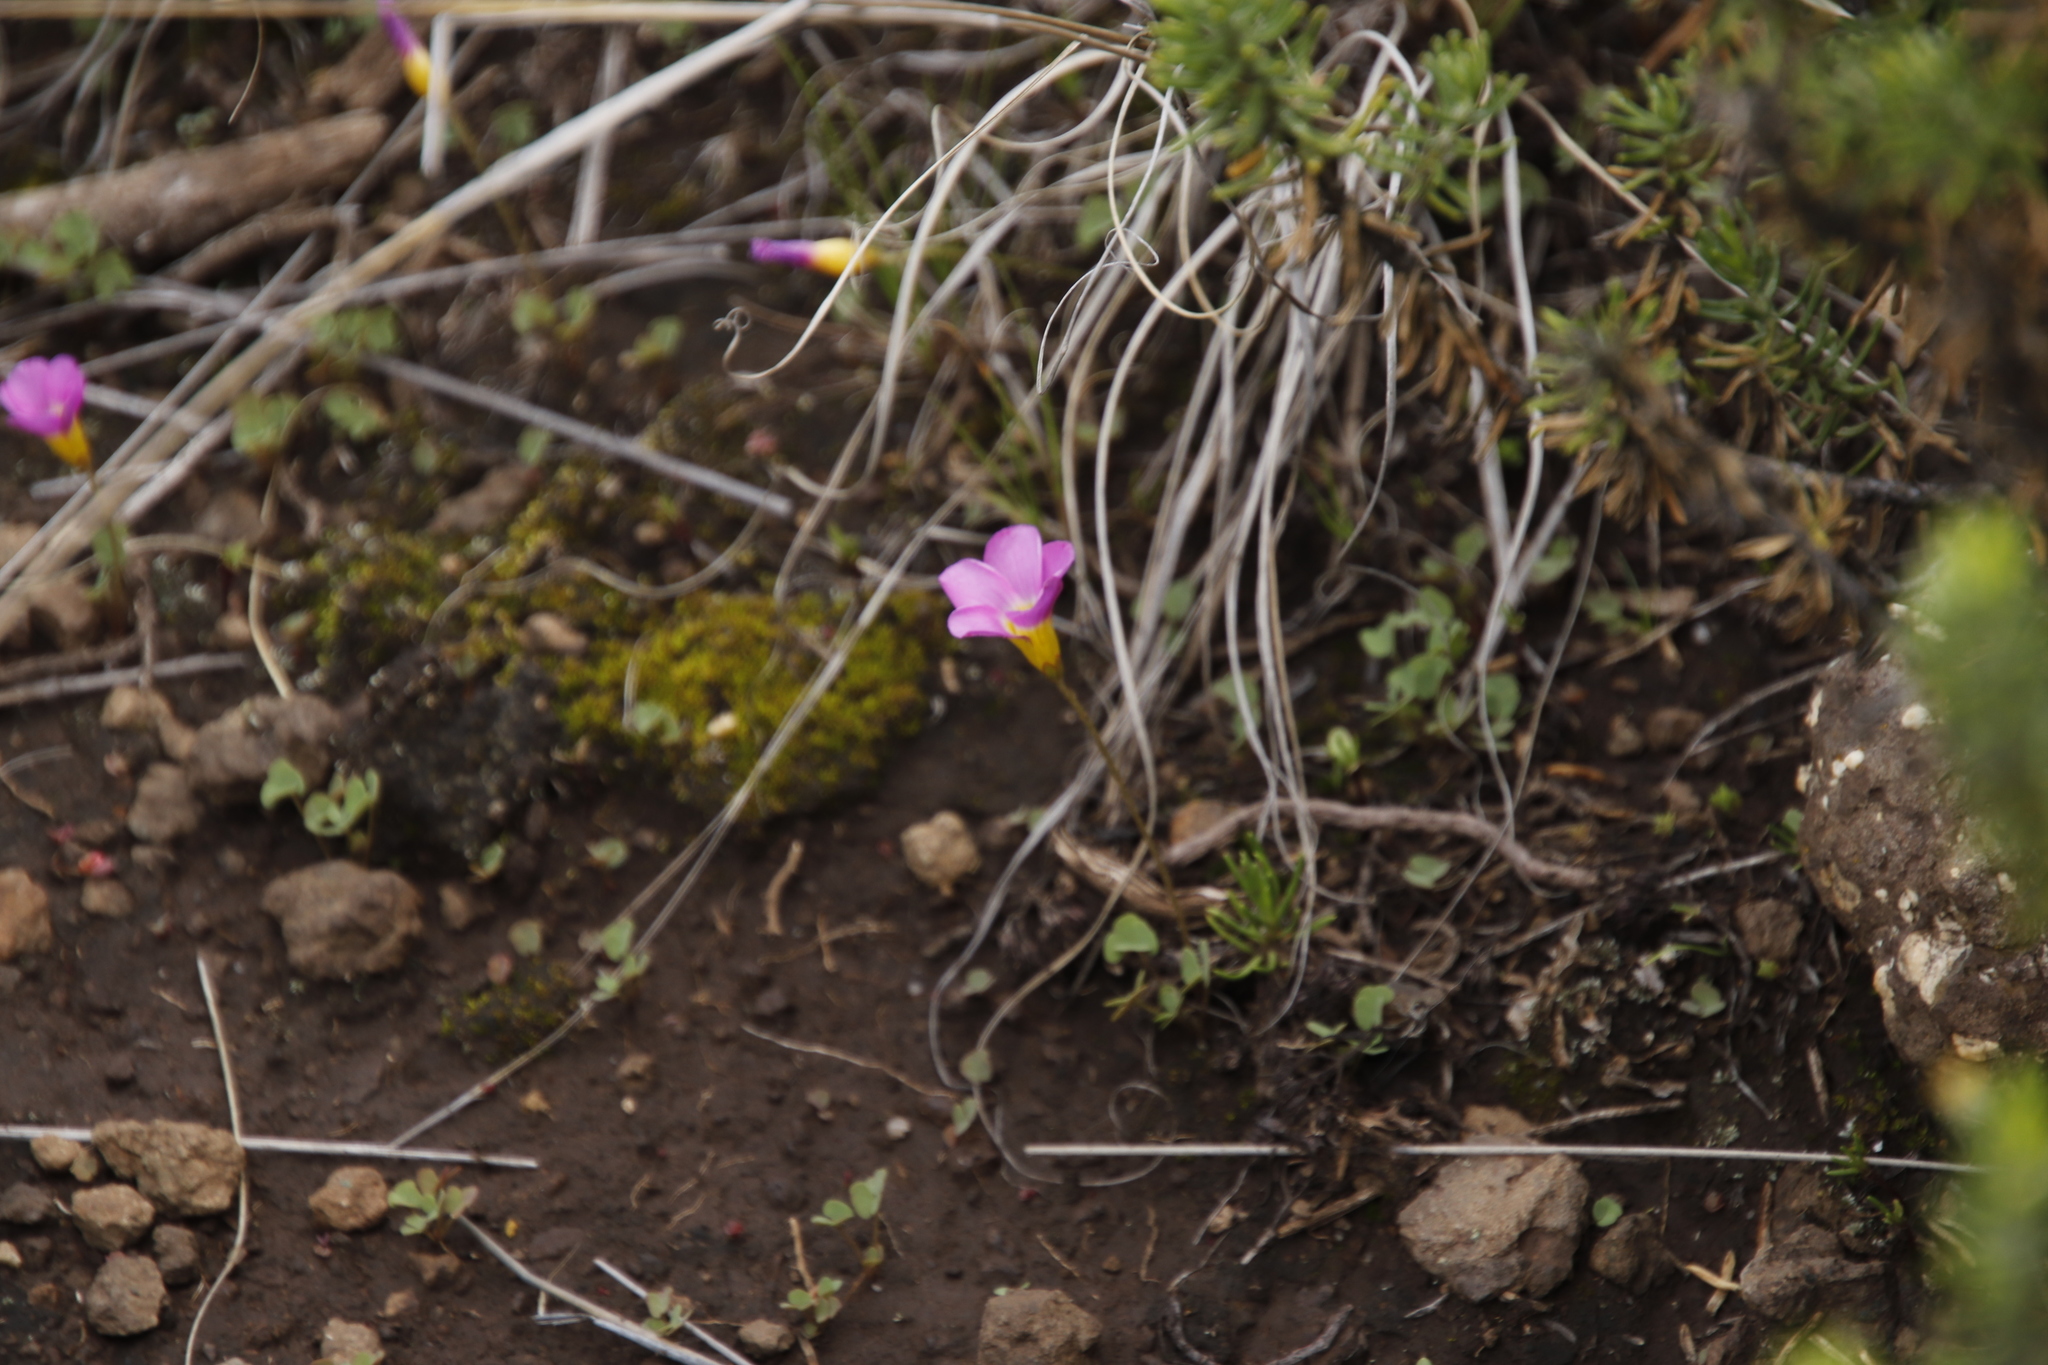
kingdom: Plantae
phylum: Tracheophyta
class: Magnoliopsida
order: Oxalidales
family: Oxalidaceae
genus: Oxalis
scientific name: Oxalis obliquifolia
